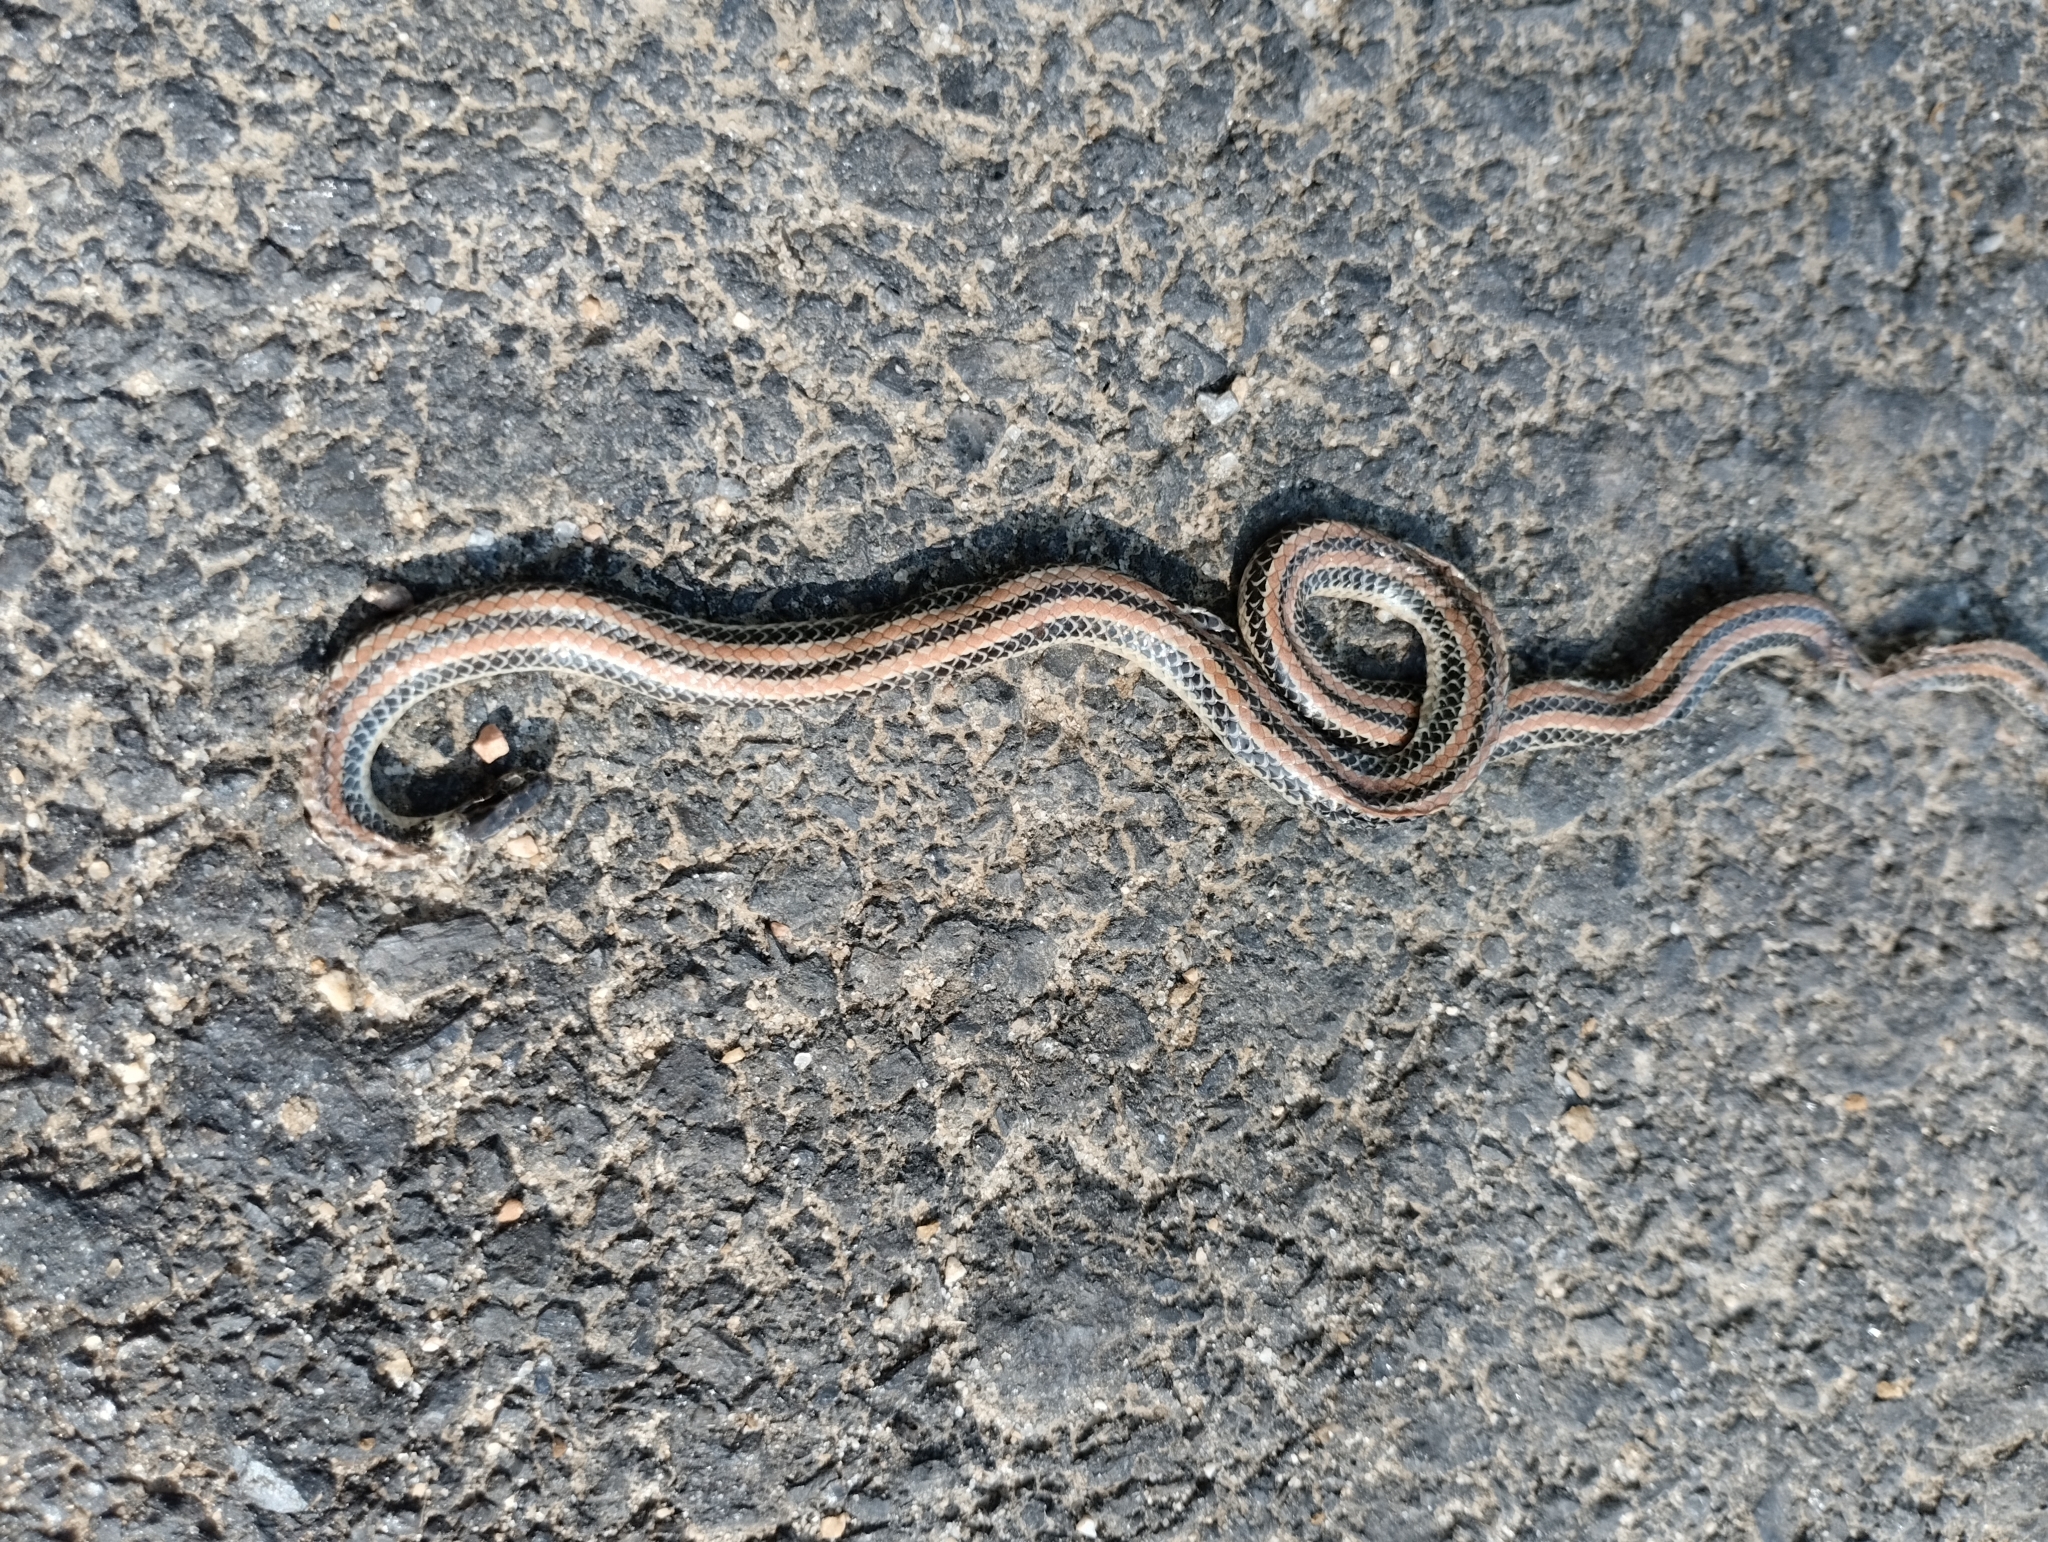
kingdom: Animalia
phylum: Chordata
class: Squamata
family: Colubridae
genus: Phalotris
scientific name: Phalotris lemniscatus
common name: Dumeril's diadem snake
